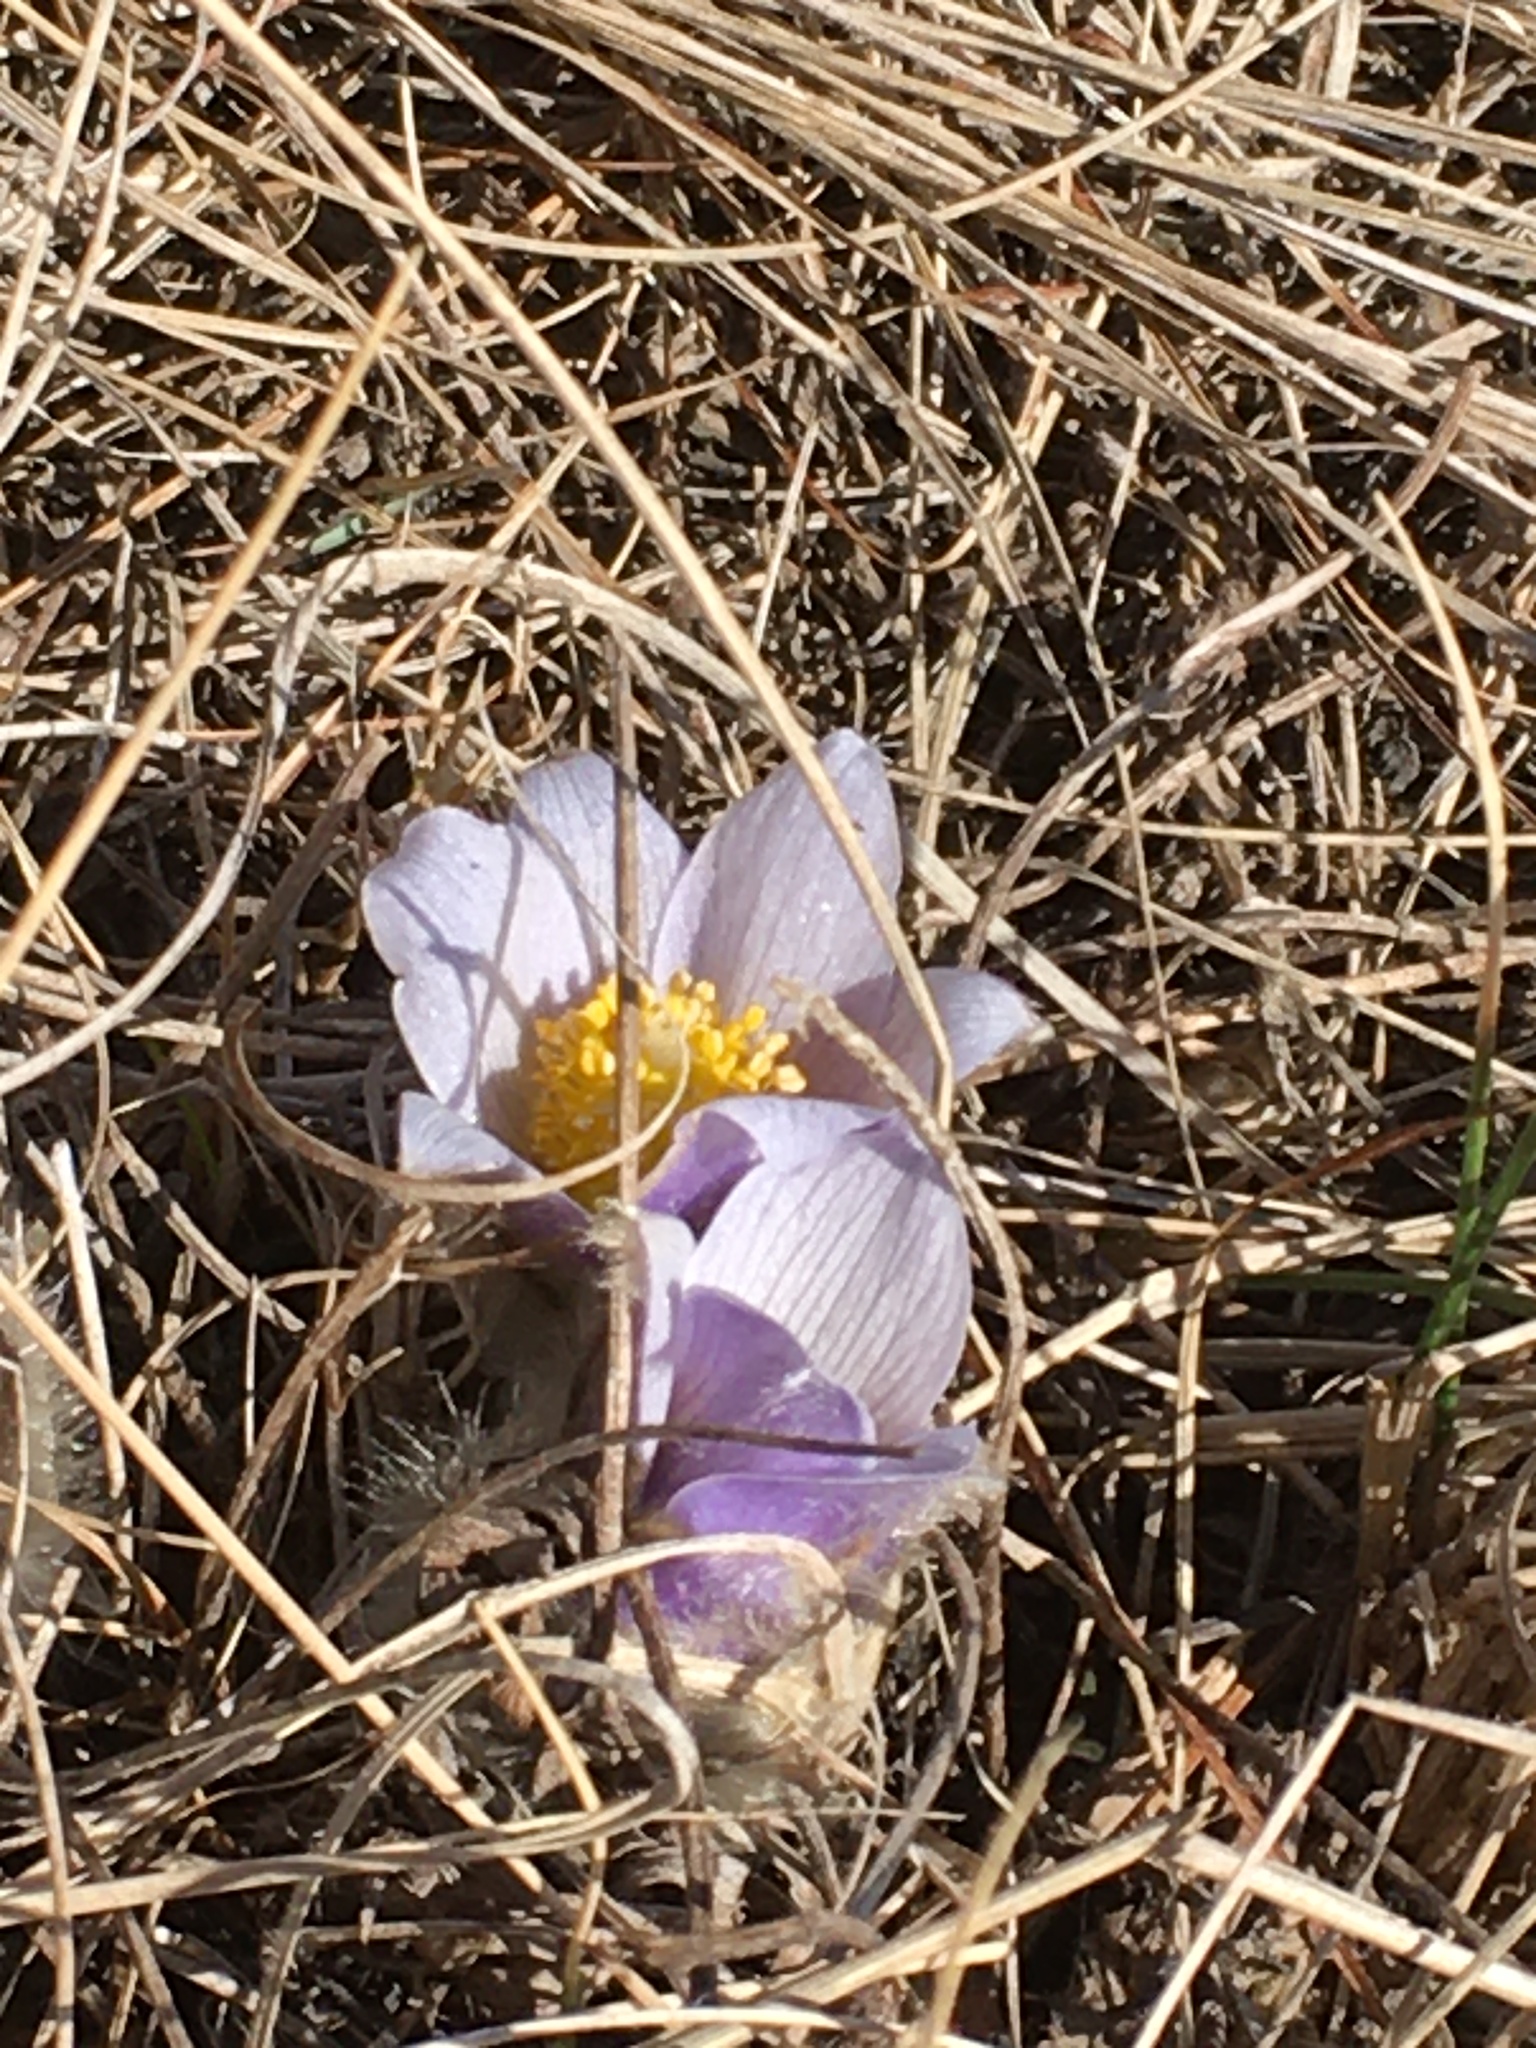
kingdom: Plantae
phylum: Tracheophyta
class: Magnoliopsida
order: Ranunculales
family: Ranunculaceae
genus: Pulsatilla
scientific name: Pulsatilla nuttalliana
